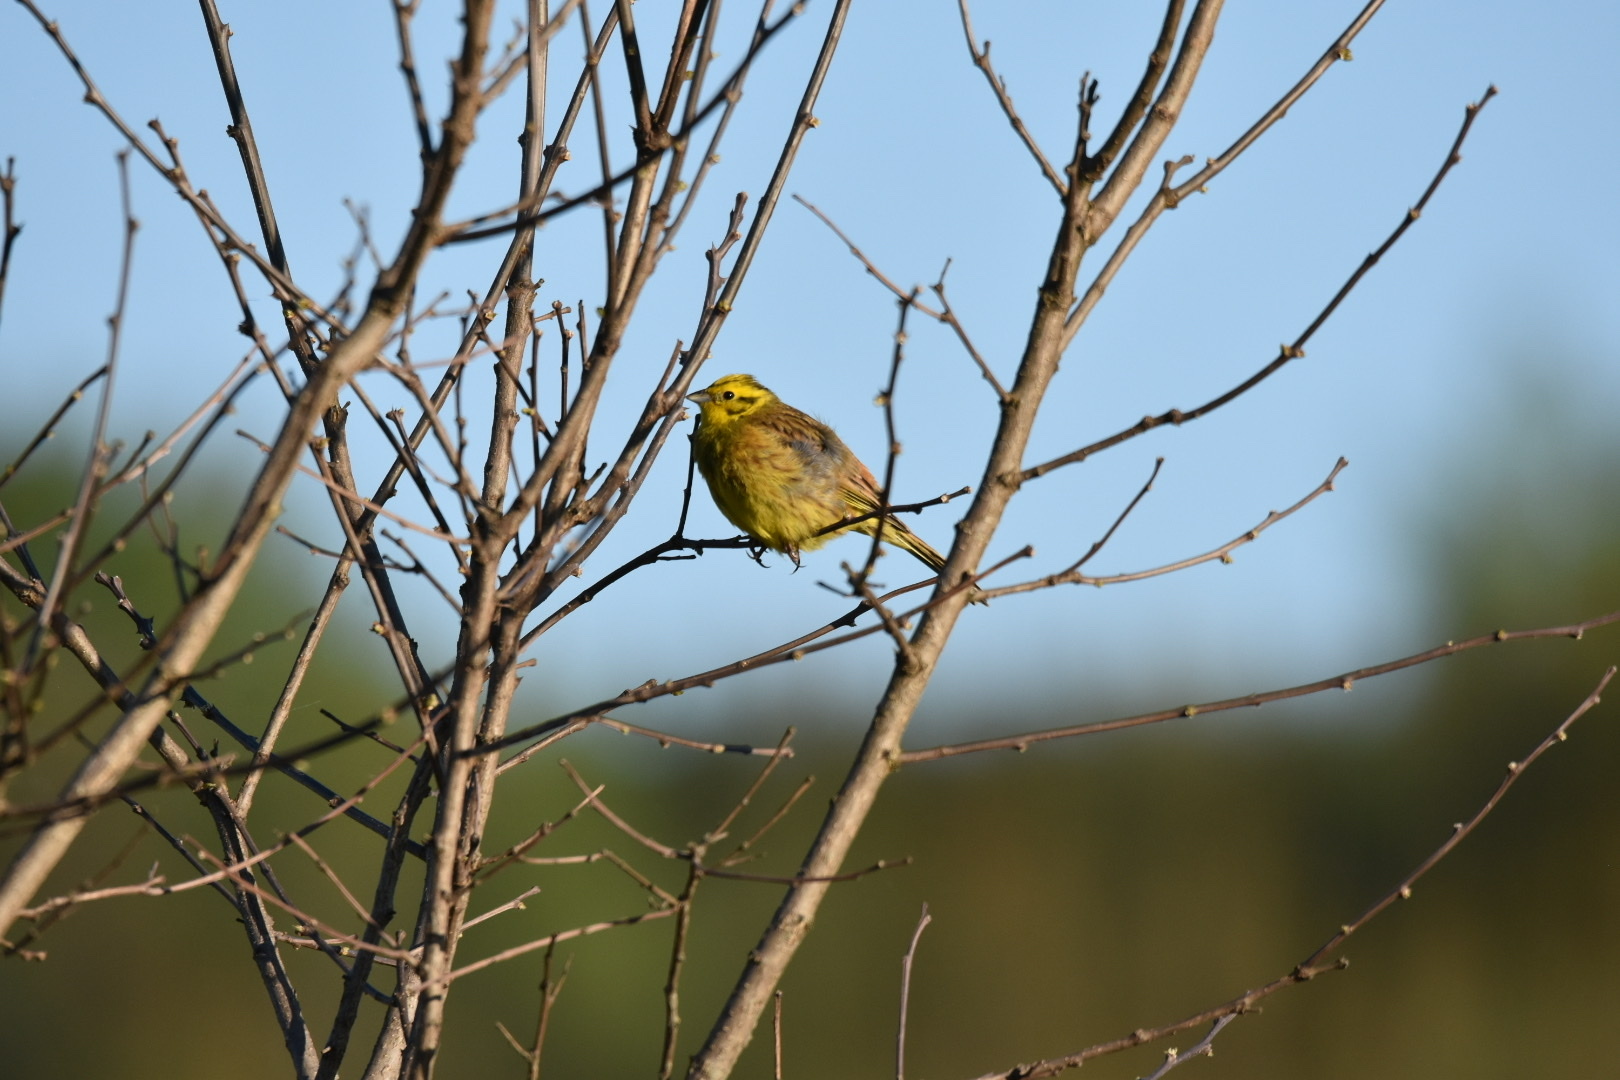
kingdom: Animalia
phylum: Chordata
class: Aves
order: Passeriformes
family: Emberizidae
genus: Emberiza
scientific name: Emberiza citrinella
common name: Yellowhammer
